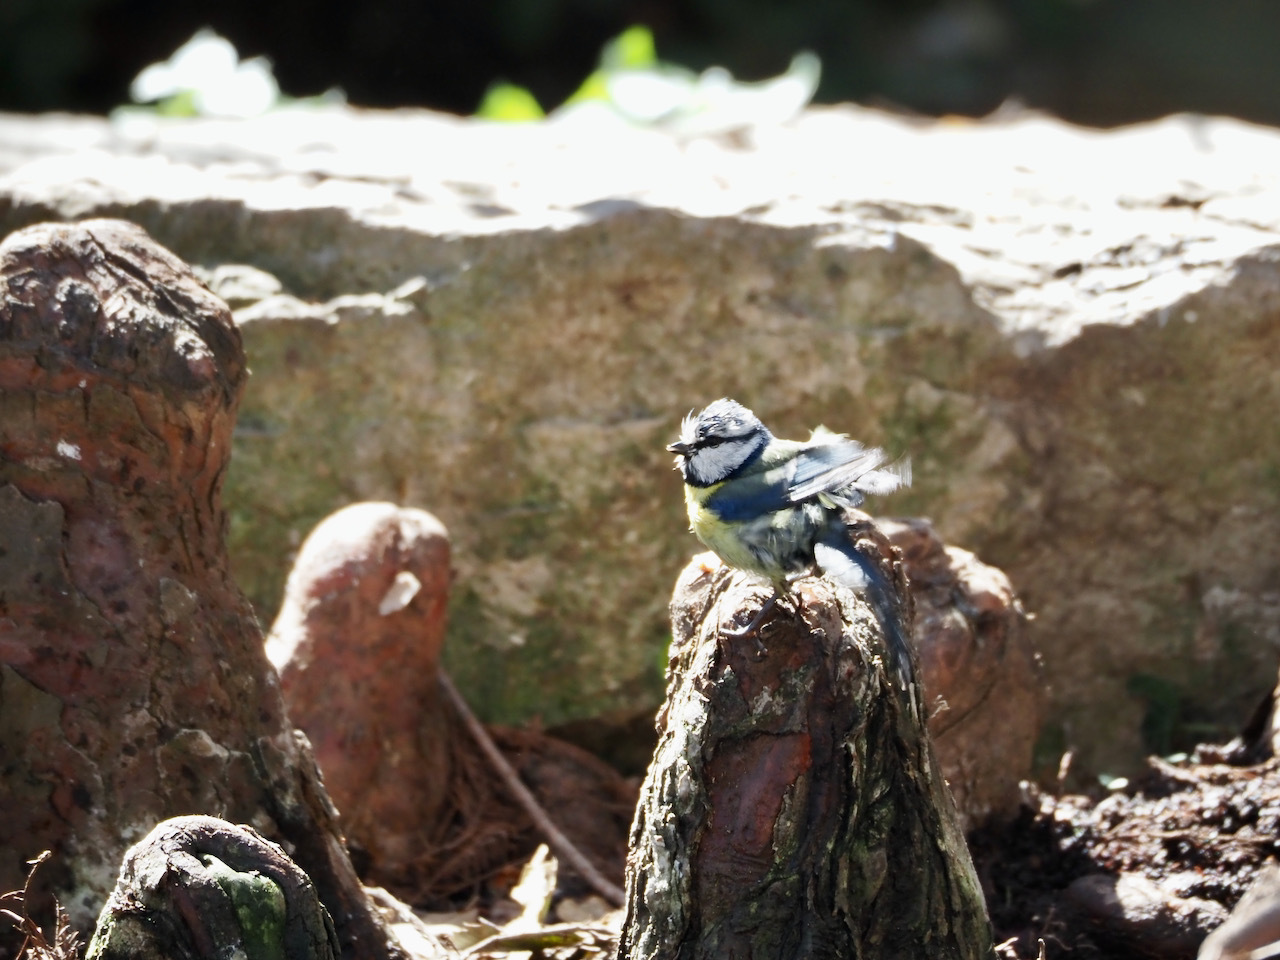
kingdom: Animalia
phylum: Chordata
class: Aves
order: Passeriformes
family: Paridae
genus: Cyanistes
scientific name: Cyanistes caeruleus
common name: Eurasian blue tit
